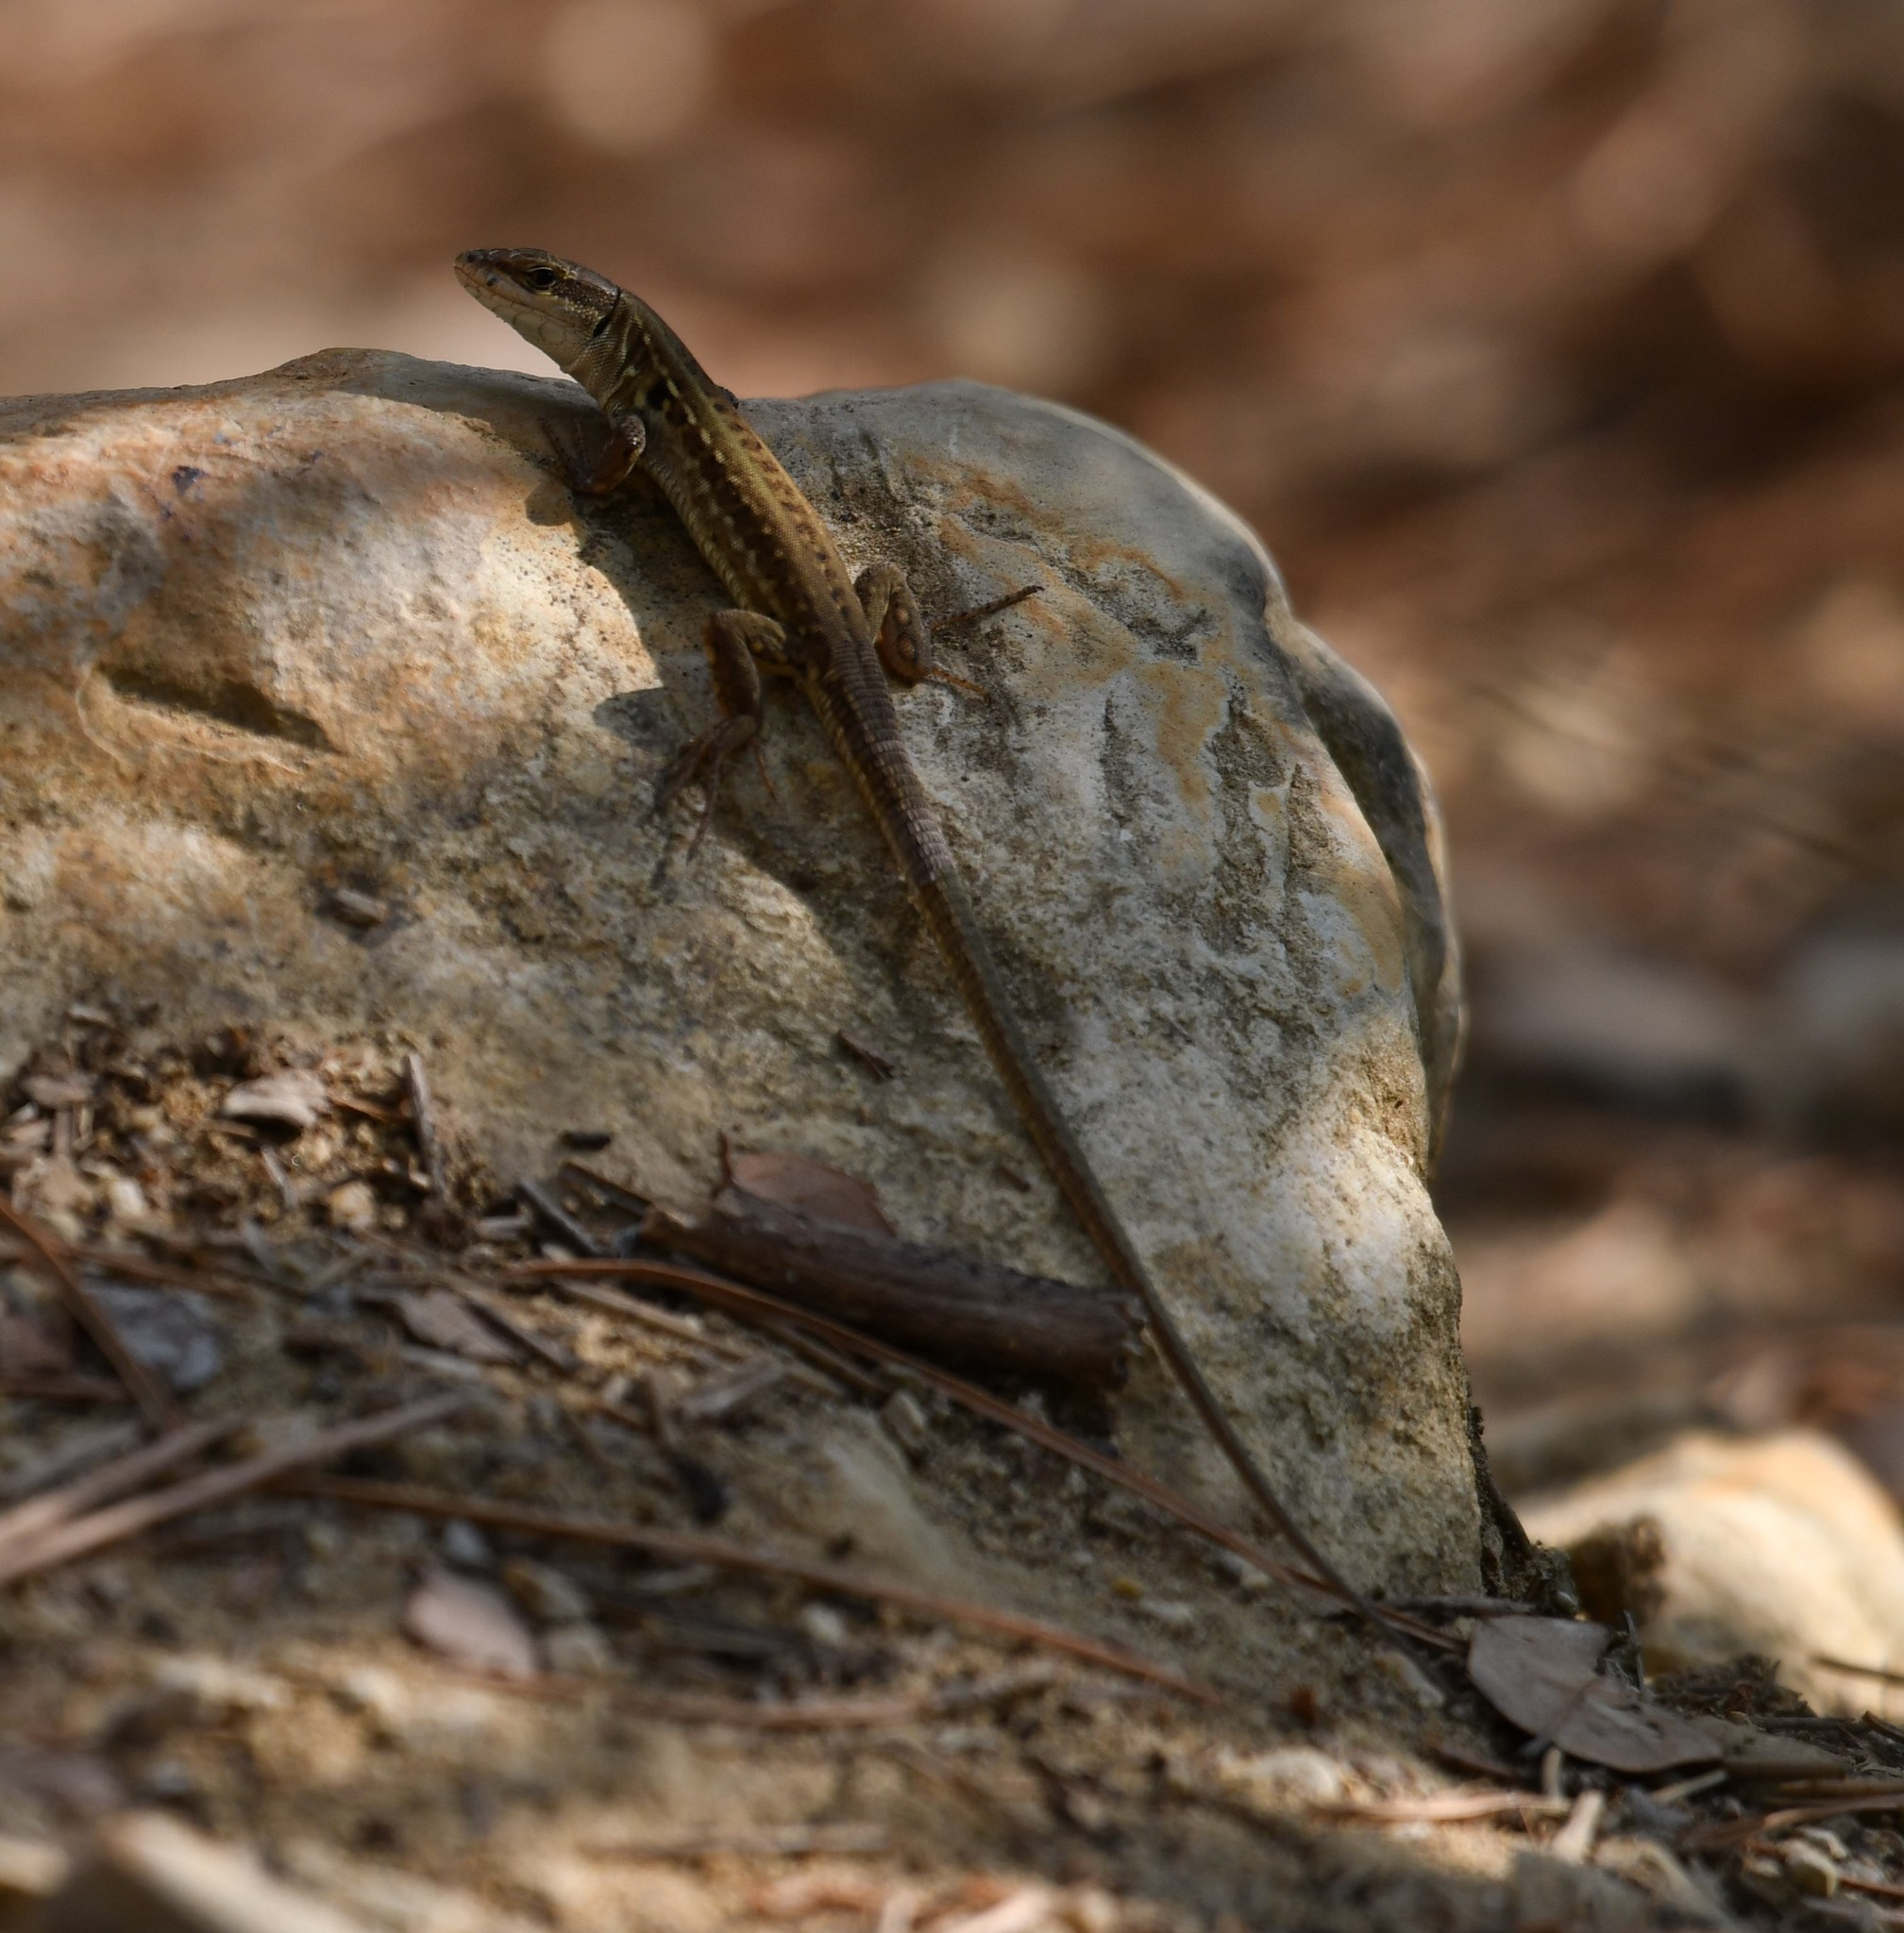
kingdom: Animalia
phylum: Chordata
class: Squamata
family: Lacertidae
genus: Podarcis
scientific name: Podarcis siculus
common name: Italian wall lizard
